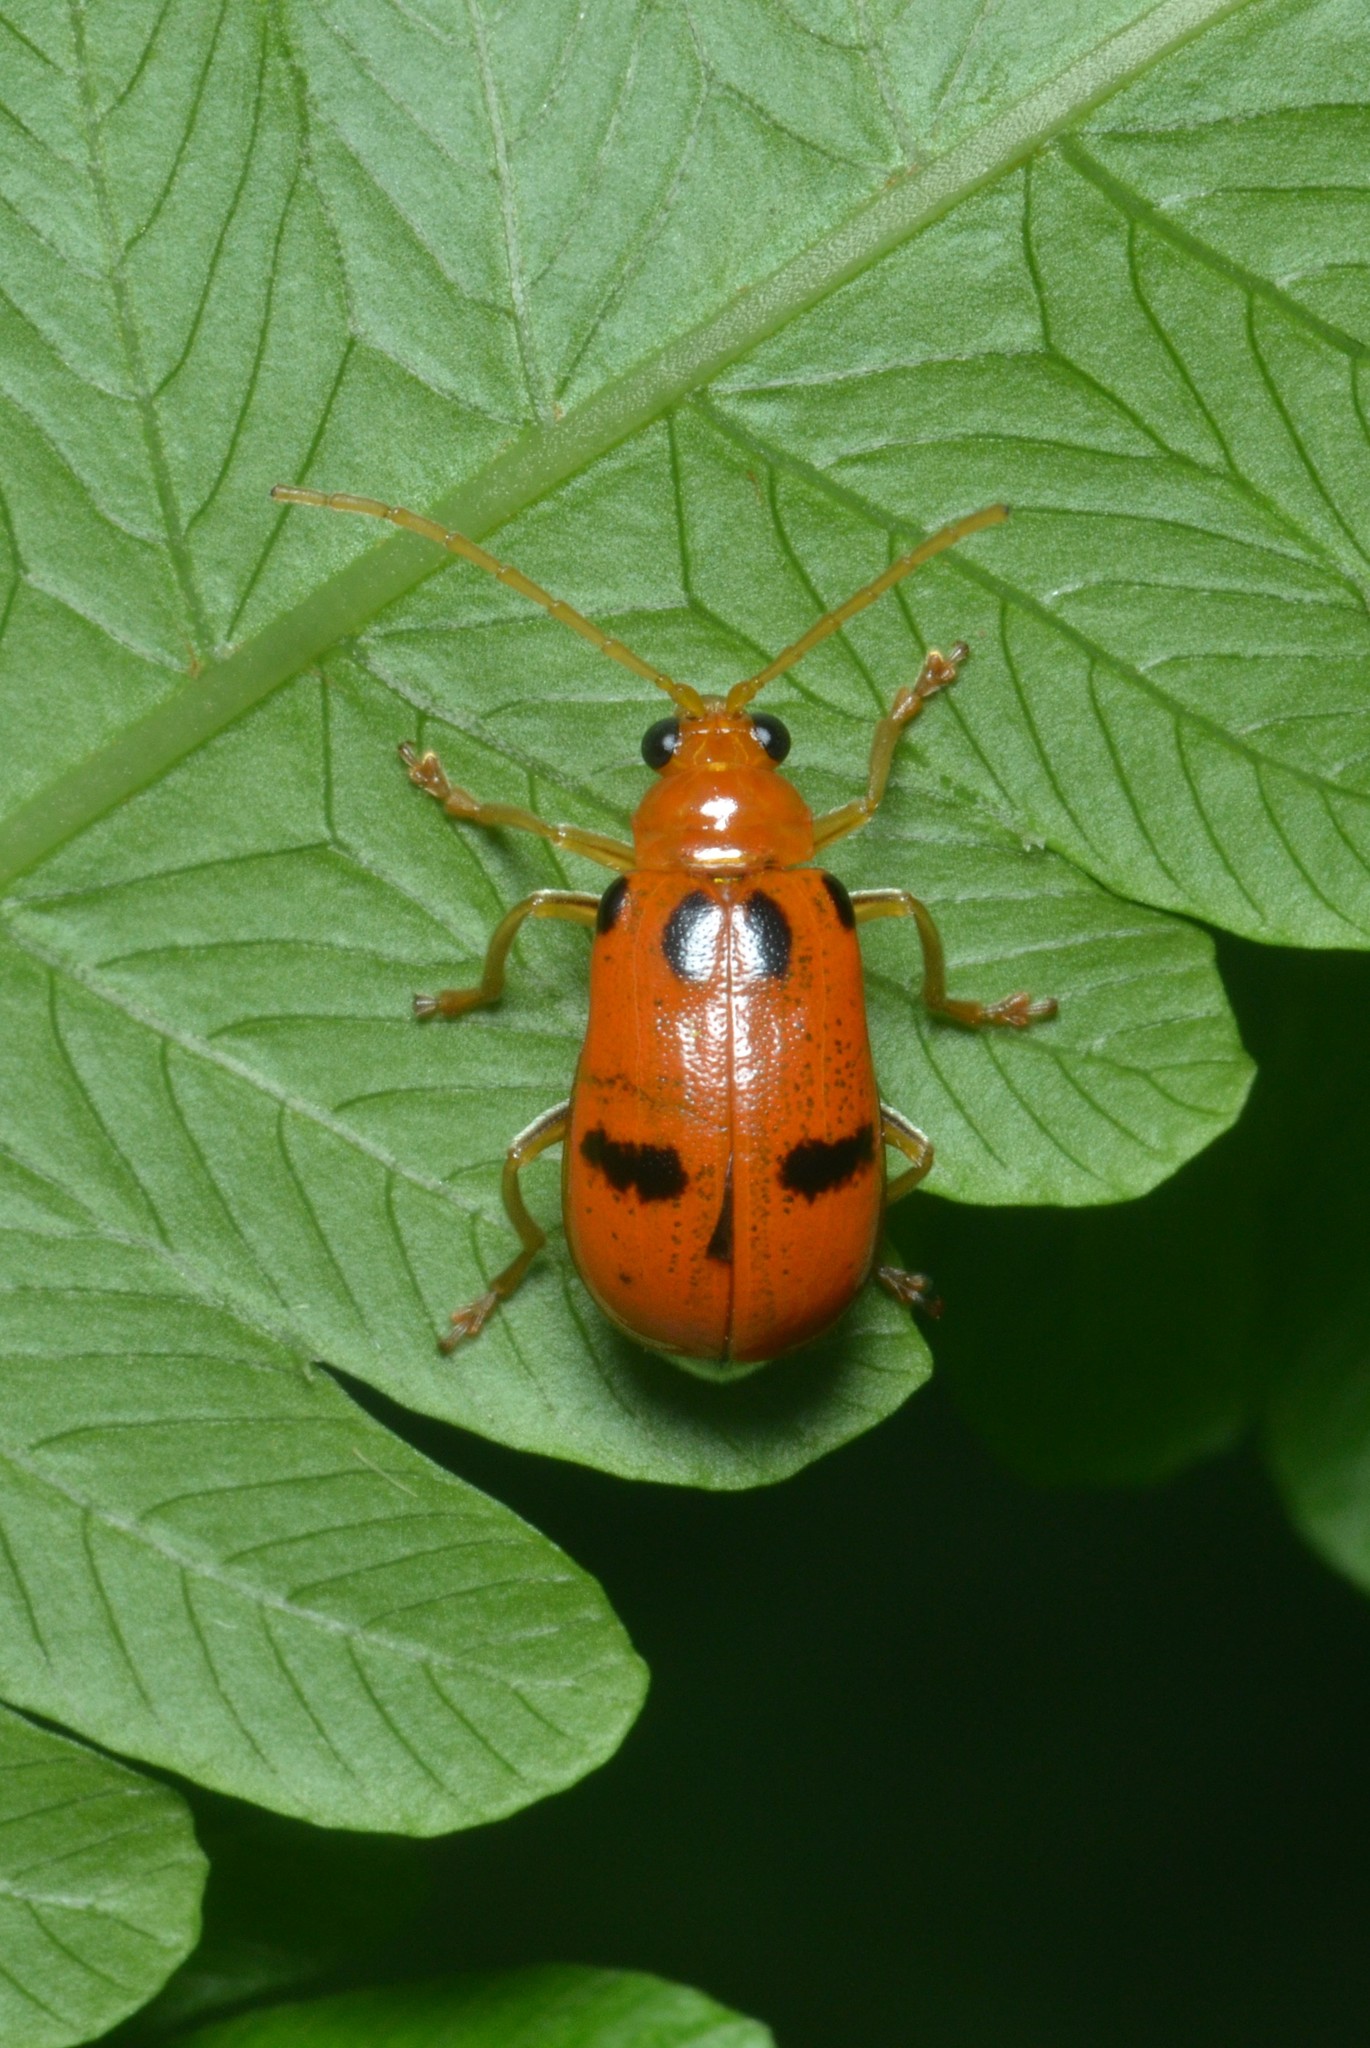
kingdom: Animalia
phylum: Arthropoda
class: Insecta
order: Coleoptera
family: Chrysomelidae
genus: Aulacophora
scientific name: Aulacophora bicolor
